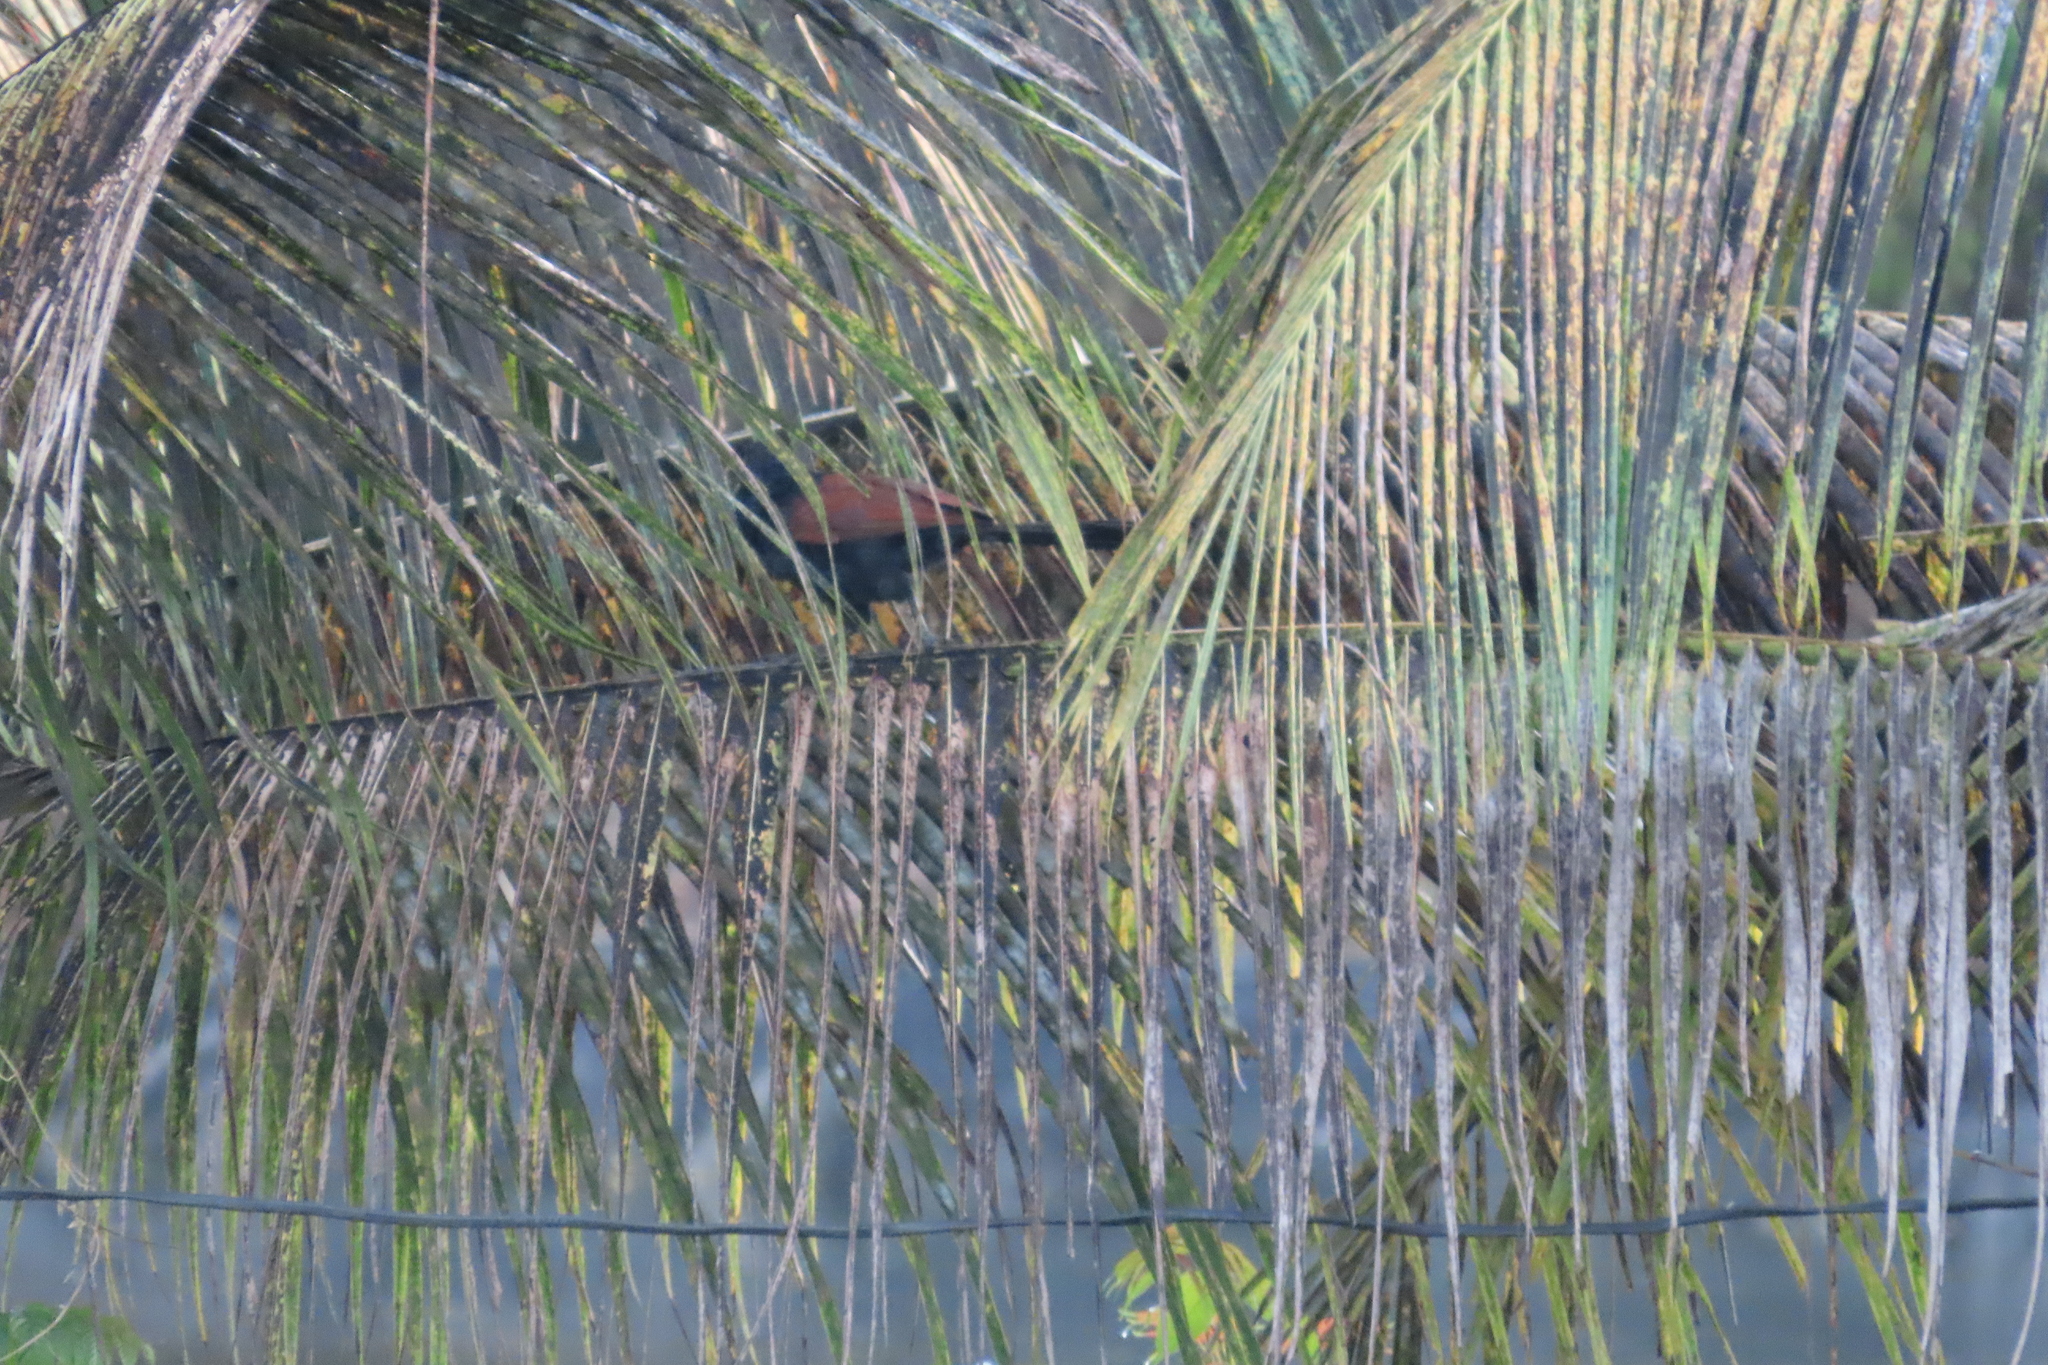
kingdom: Animalia
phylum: Chordata
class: Aves
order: Cuculiformes
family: Cuculidae
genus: Centropus
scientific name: Centropus sinensis
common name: Greater coucal
